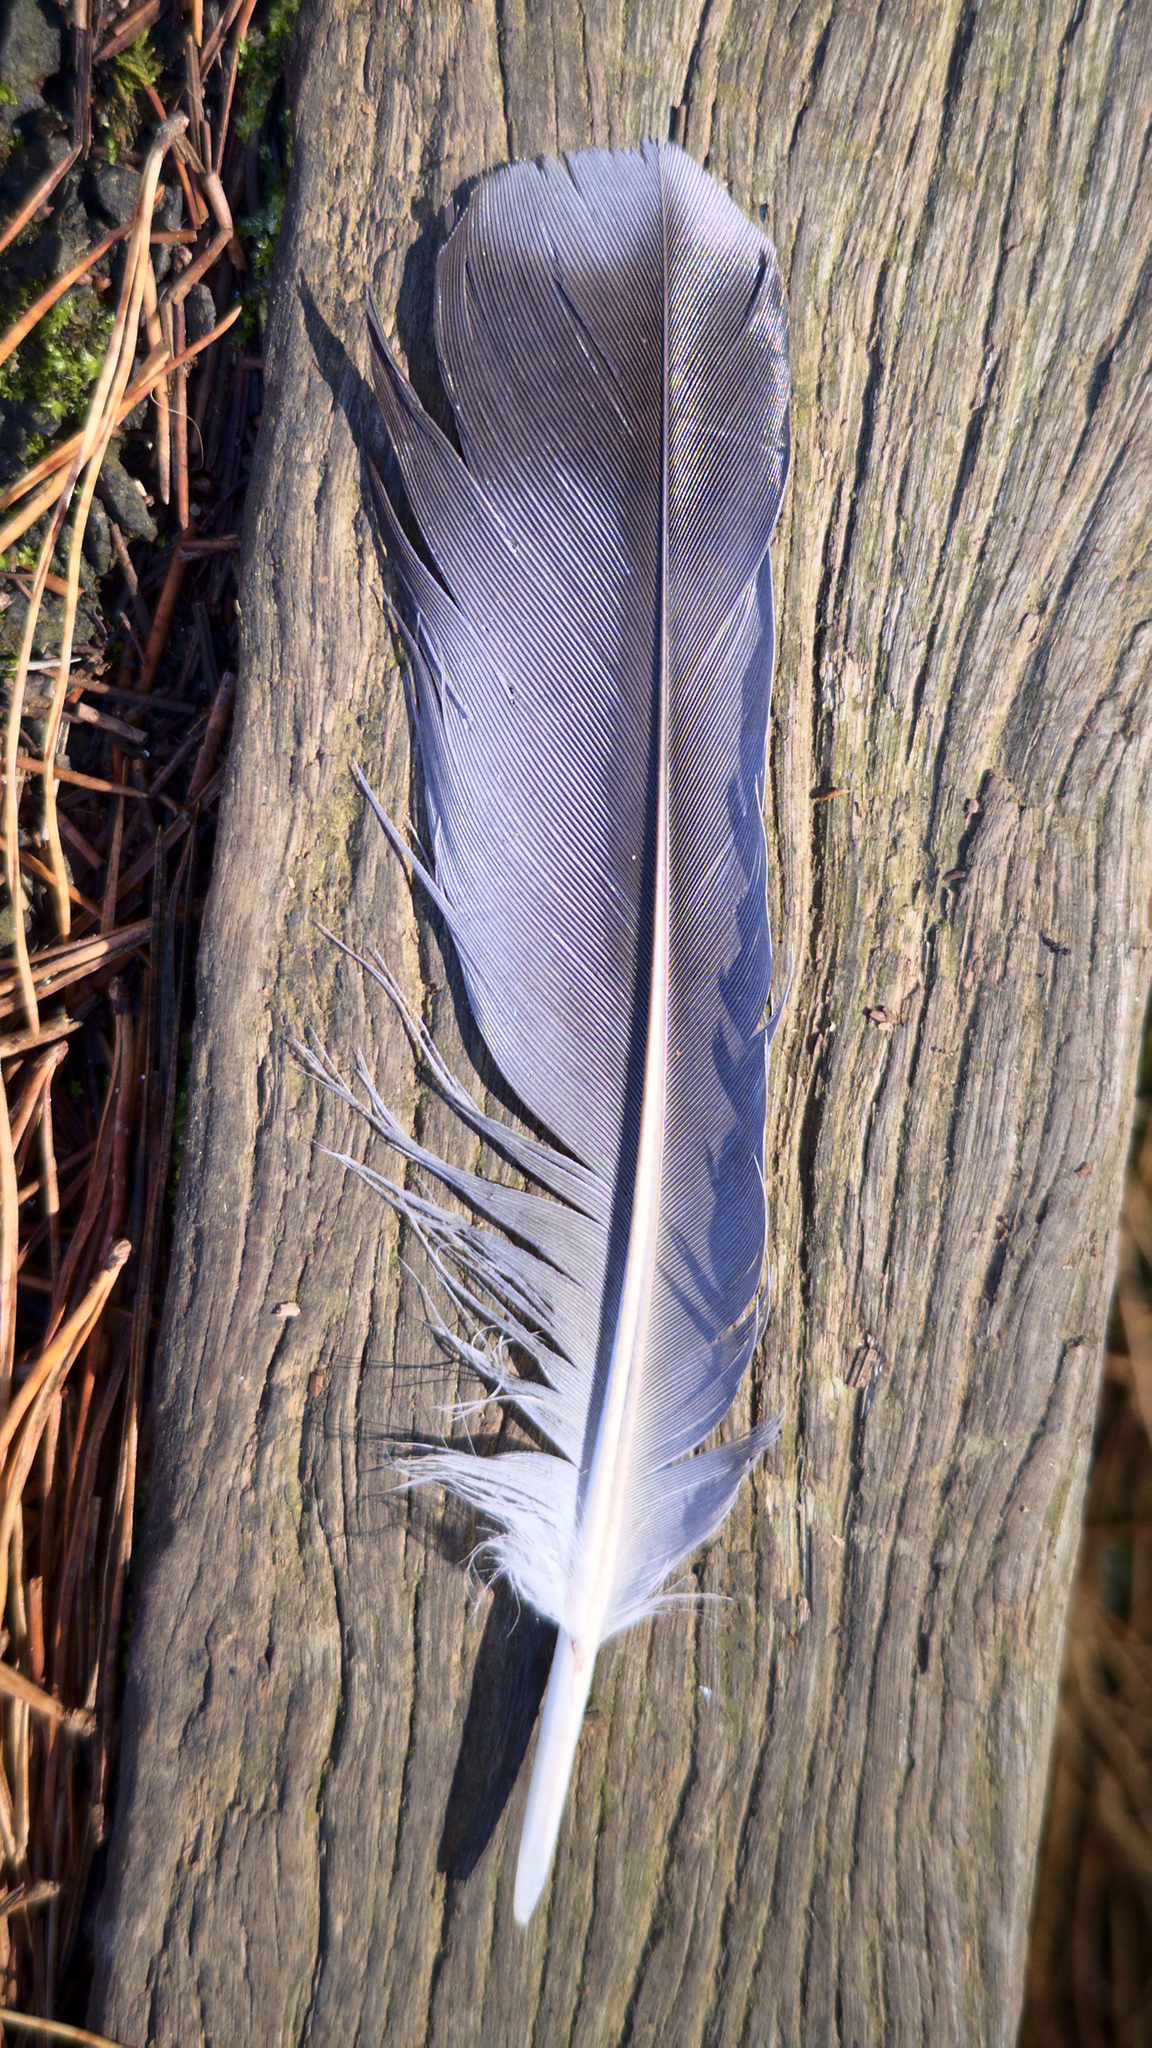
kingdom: Animalia
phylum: Chordata
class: Aves
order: Columbiformes
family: Columbidae
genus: Columba
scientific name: Columba livia
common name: Rock pigeon
